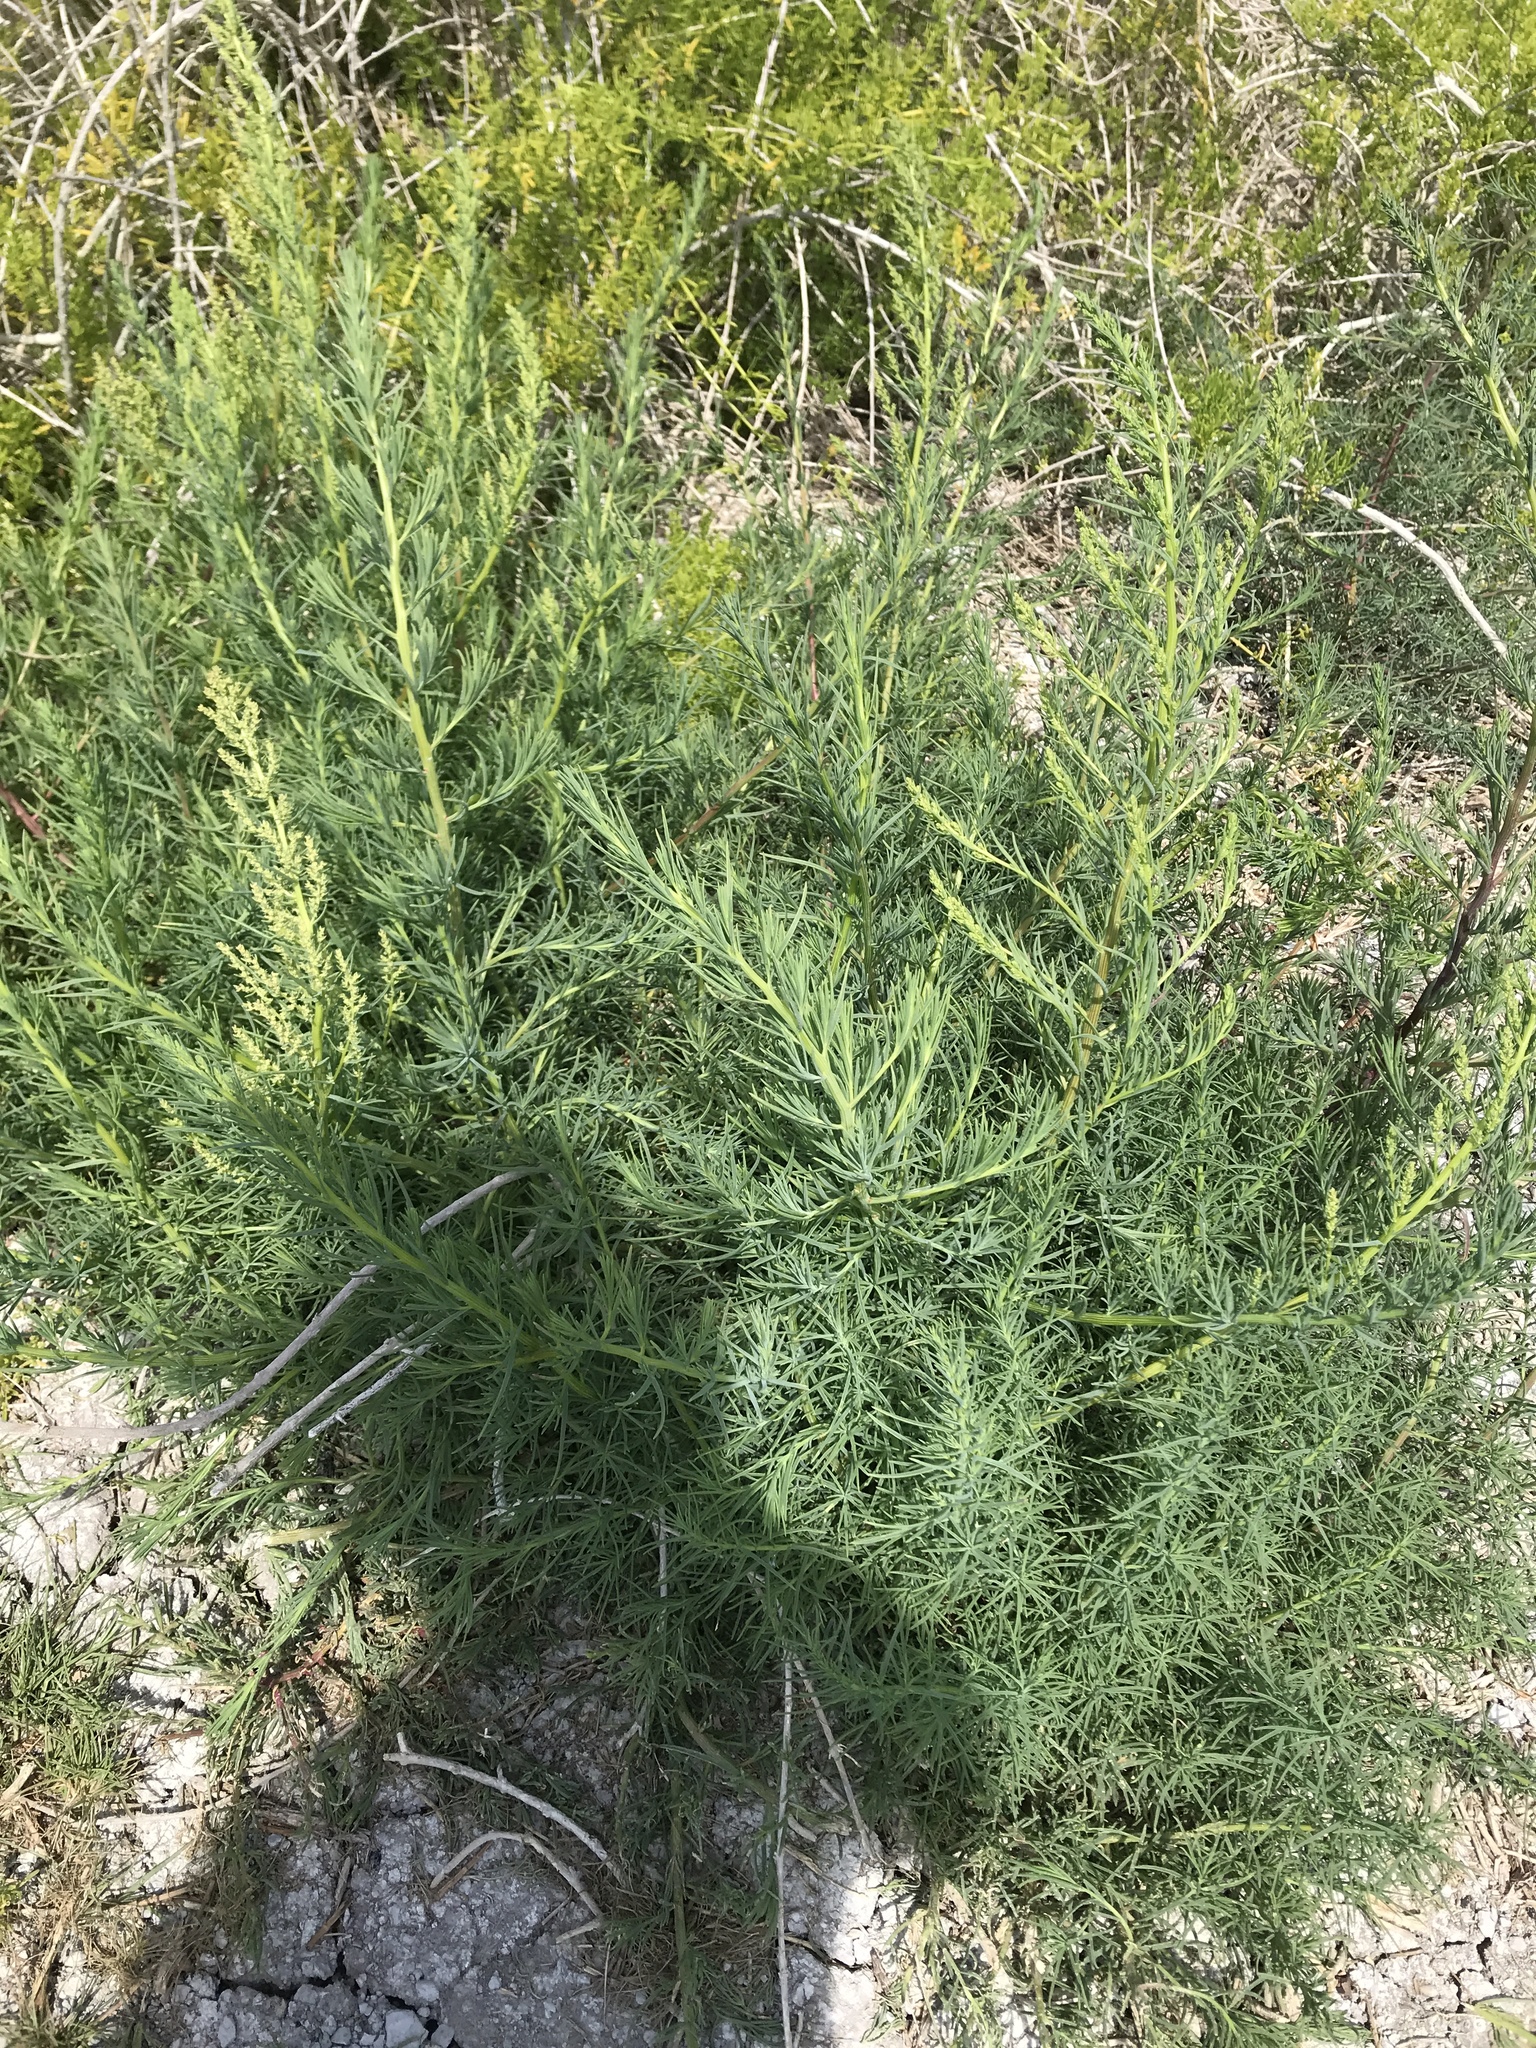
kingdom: Plantae
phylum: Tracheophyta
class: Magnoliopsida
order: Caryophyllales
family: Amaranthaceae
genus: Suaeda
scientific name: Suaeda linearis
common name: Annual seepweed
